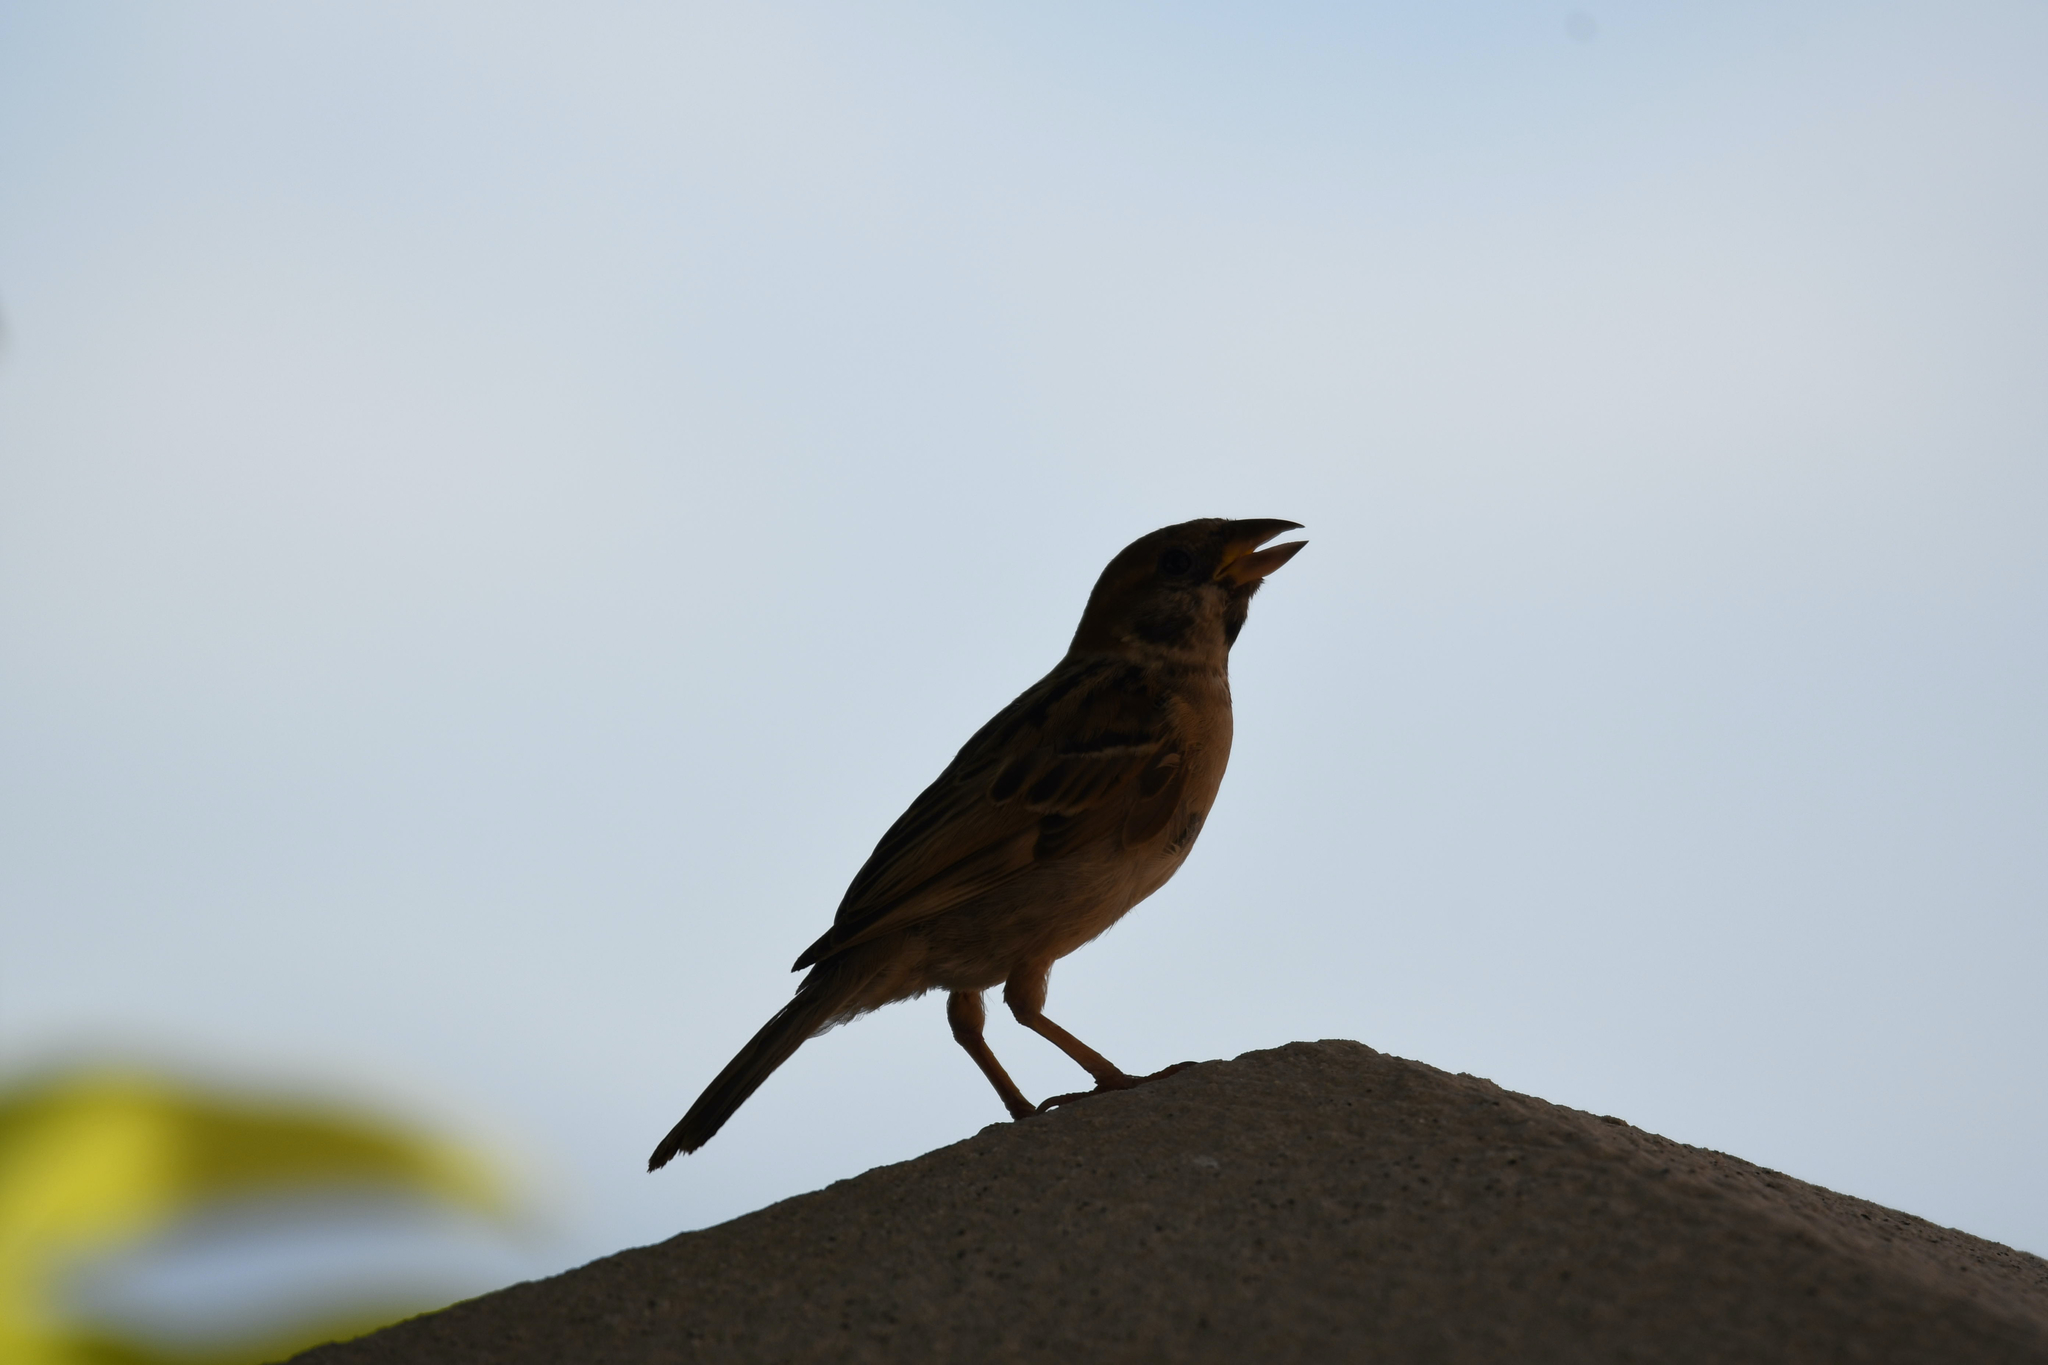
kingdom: Animalia
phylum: Chordata
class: Aves
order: Passeriformes
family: Passeridae
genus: Passer
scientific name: Passer montanus
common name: Eurasian tree sparrow
